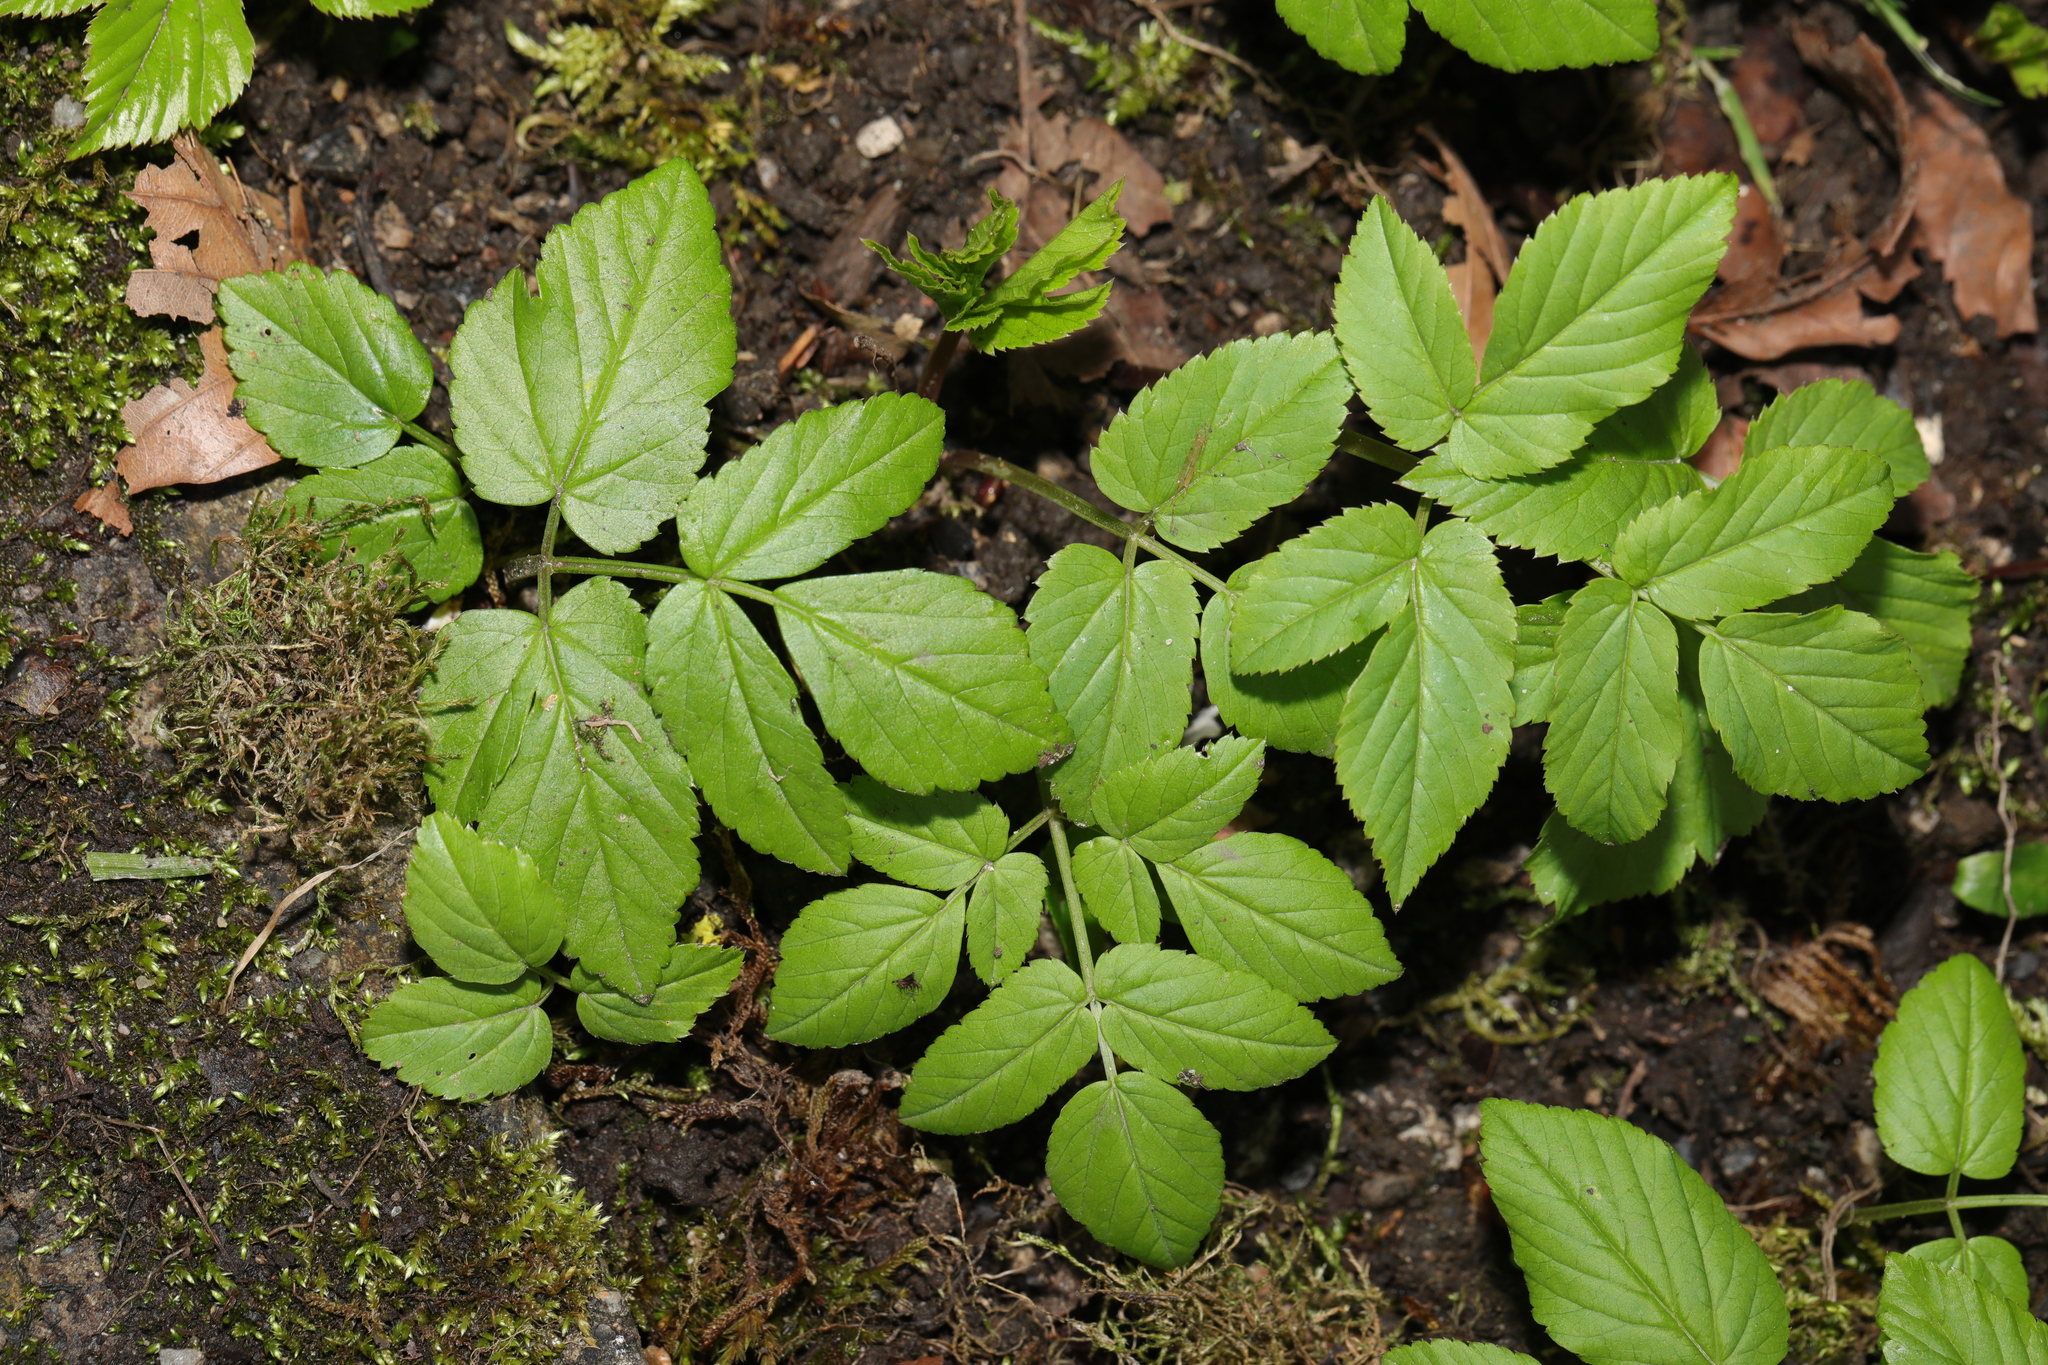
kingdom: Plantae
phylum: Tracheophyta
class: Magnoliopsida
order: Apiales
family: Apiaceae
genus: Aegopodium
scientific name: Aegopodium podagraria
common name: Ground-elder
